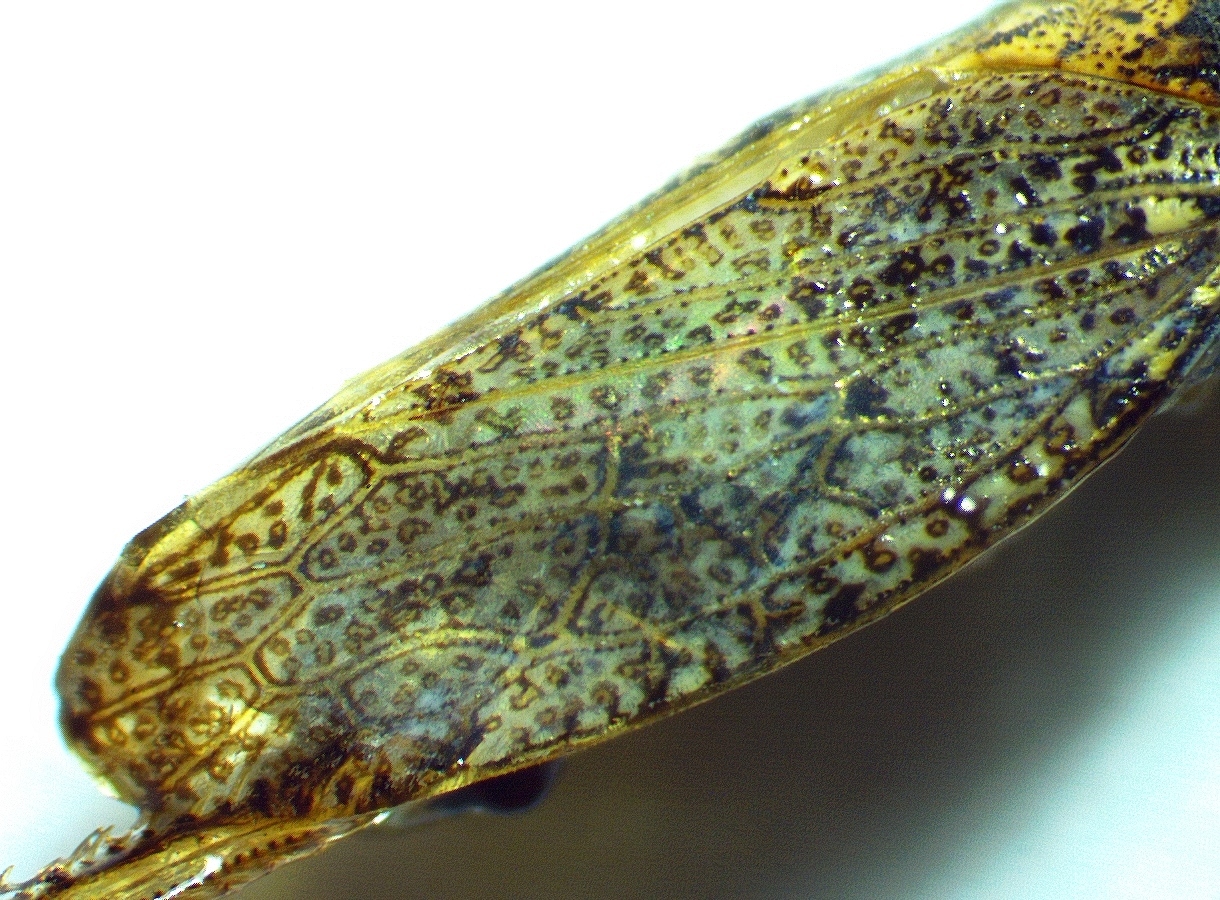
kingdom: Animalia
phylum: Arthropoda
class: Insecta
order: Hemiptera
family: Cicadellidae
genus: Curtara
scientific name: Curtara insularis
